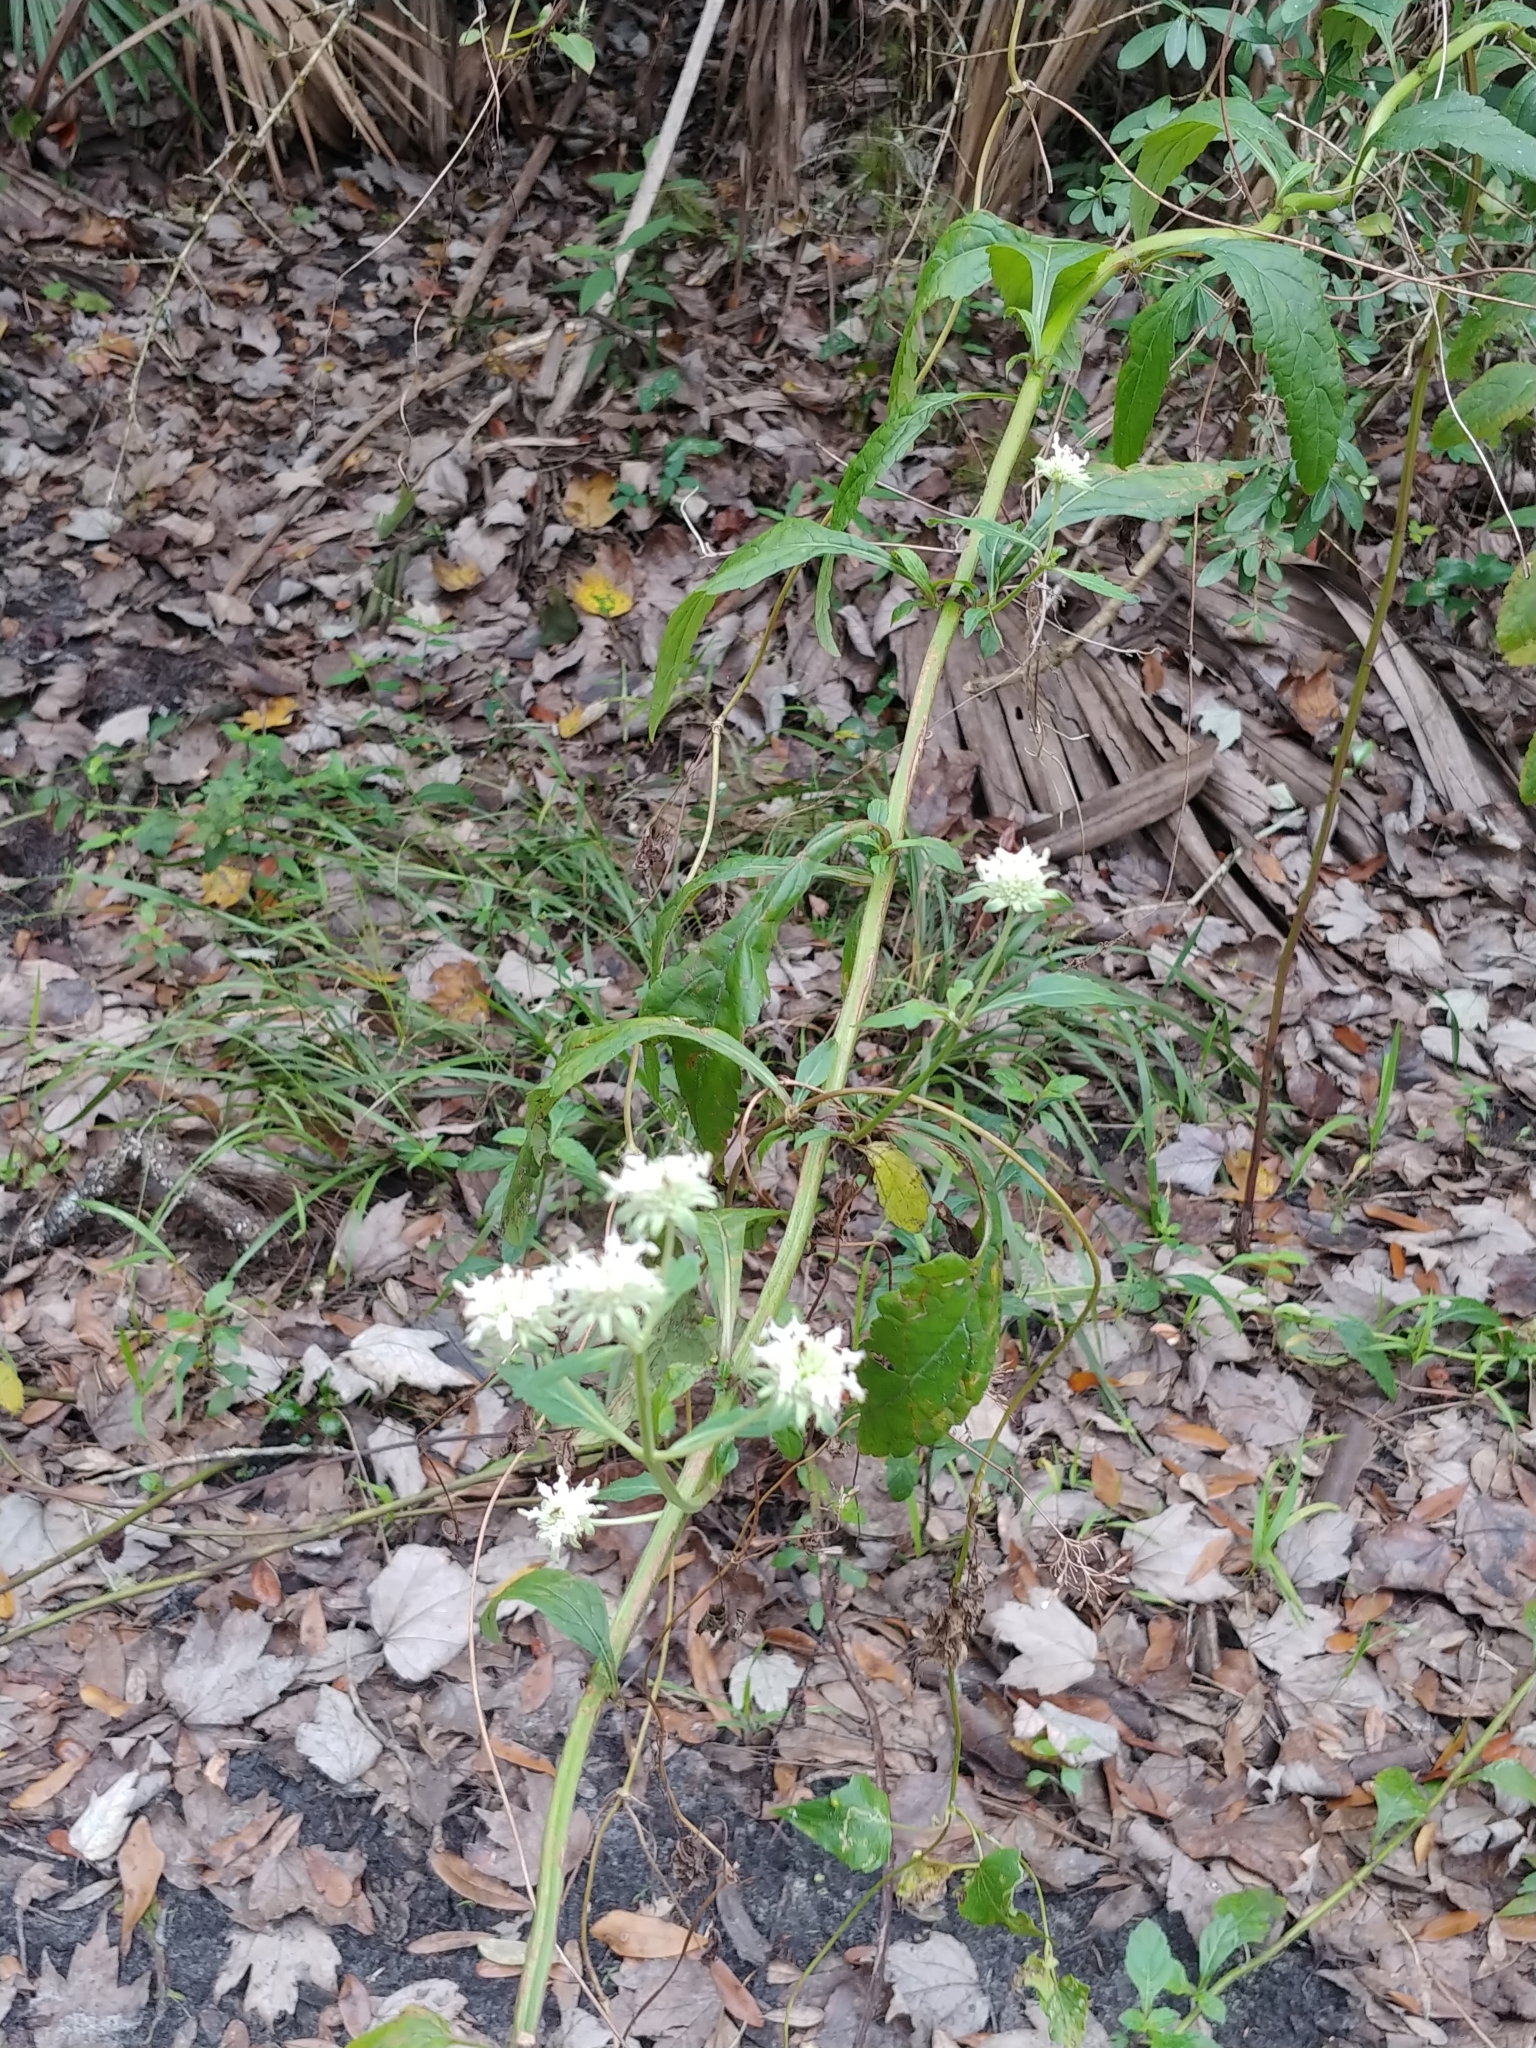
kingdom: Plantae
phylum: Tracheophyta
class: Magnoliopsida
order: Lamiales
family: Lamiaceae
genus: Hyptis
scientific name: Hyptis alata
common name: Cluster bush-mint
